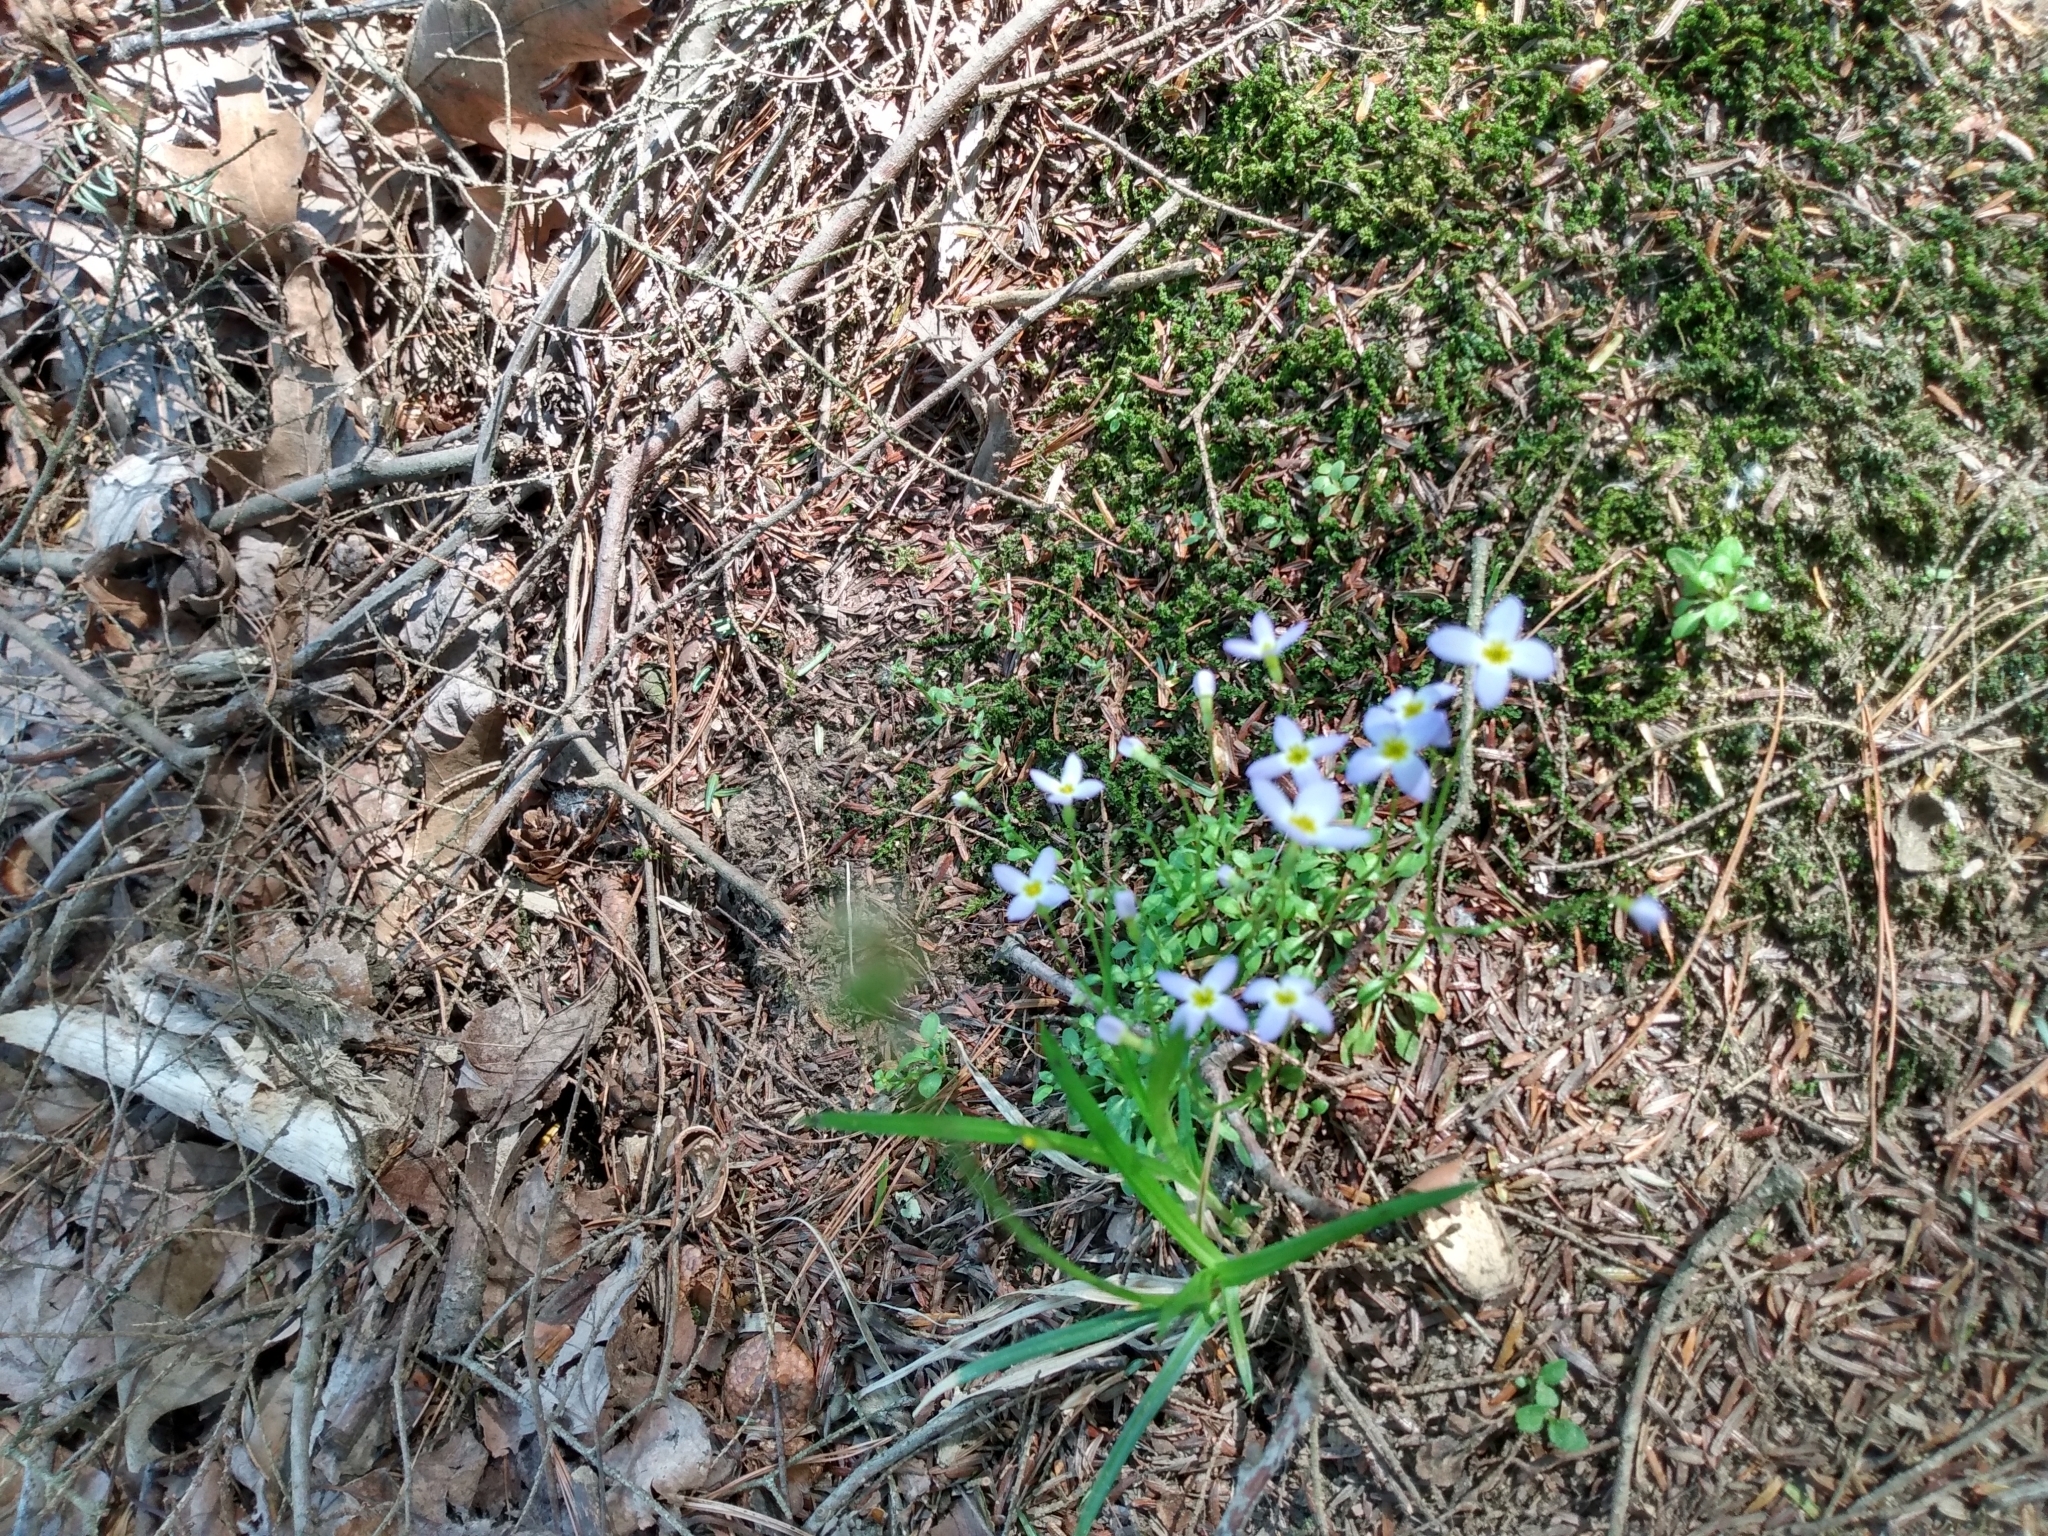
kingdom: Plantae
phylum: Tracheophyta
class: Magnoliopsida
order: Gentianales
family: Rubiaceae
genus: Houstonia
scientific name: Houstonia caerulea
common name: Bluets
